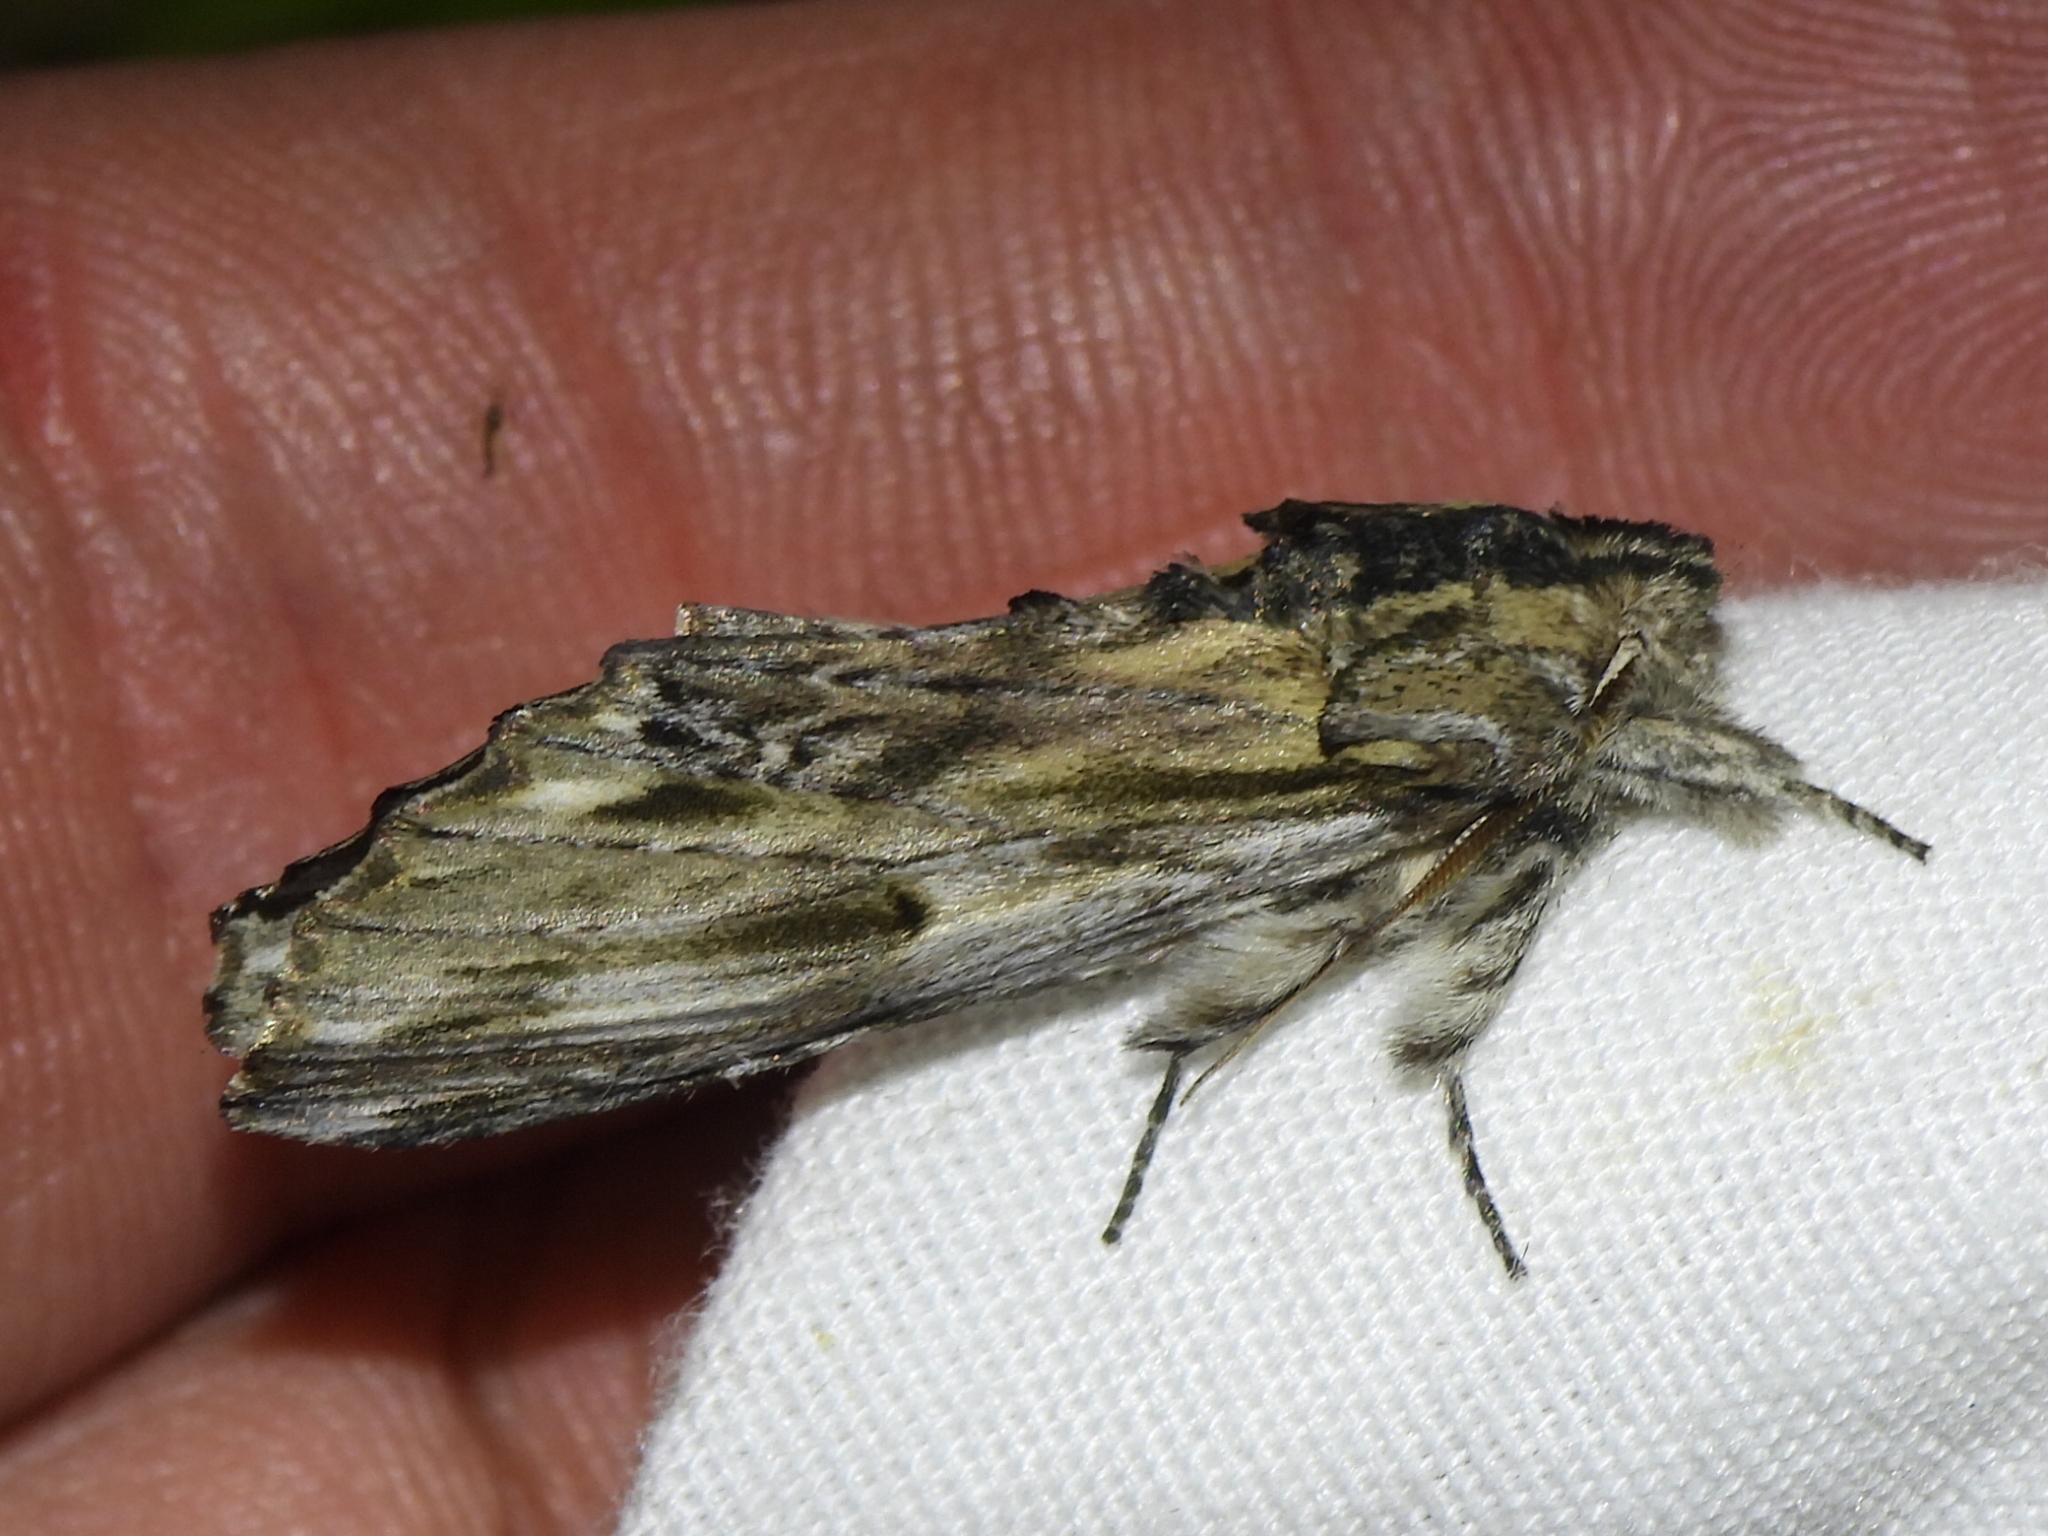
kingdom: Animalia
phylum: Arthropoda
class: Insecta
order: Lepidoptera
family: Notodontidae
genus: Oligocentria
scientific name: Oligocentria Ianassa lignicolor
